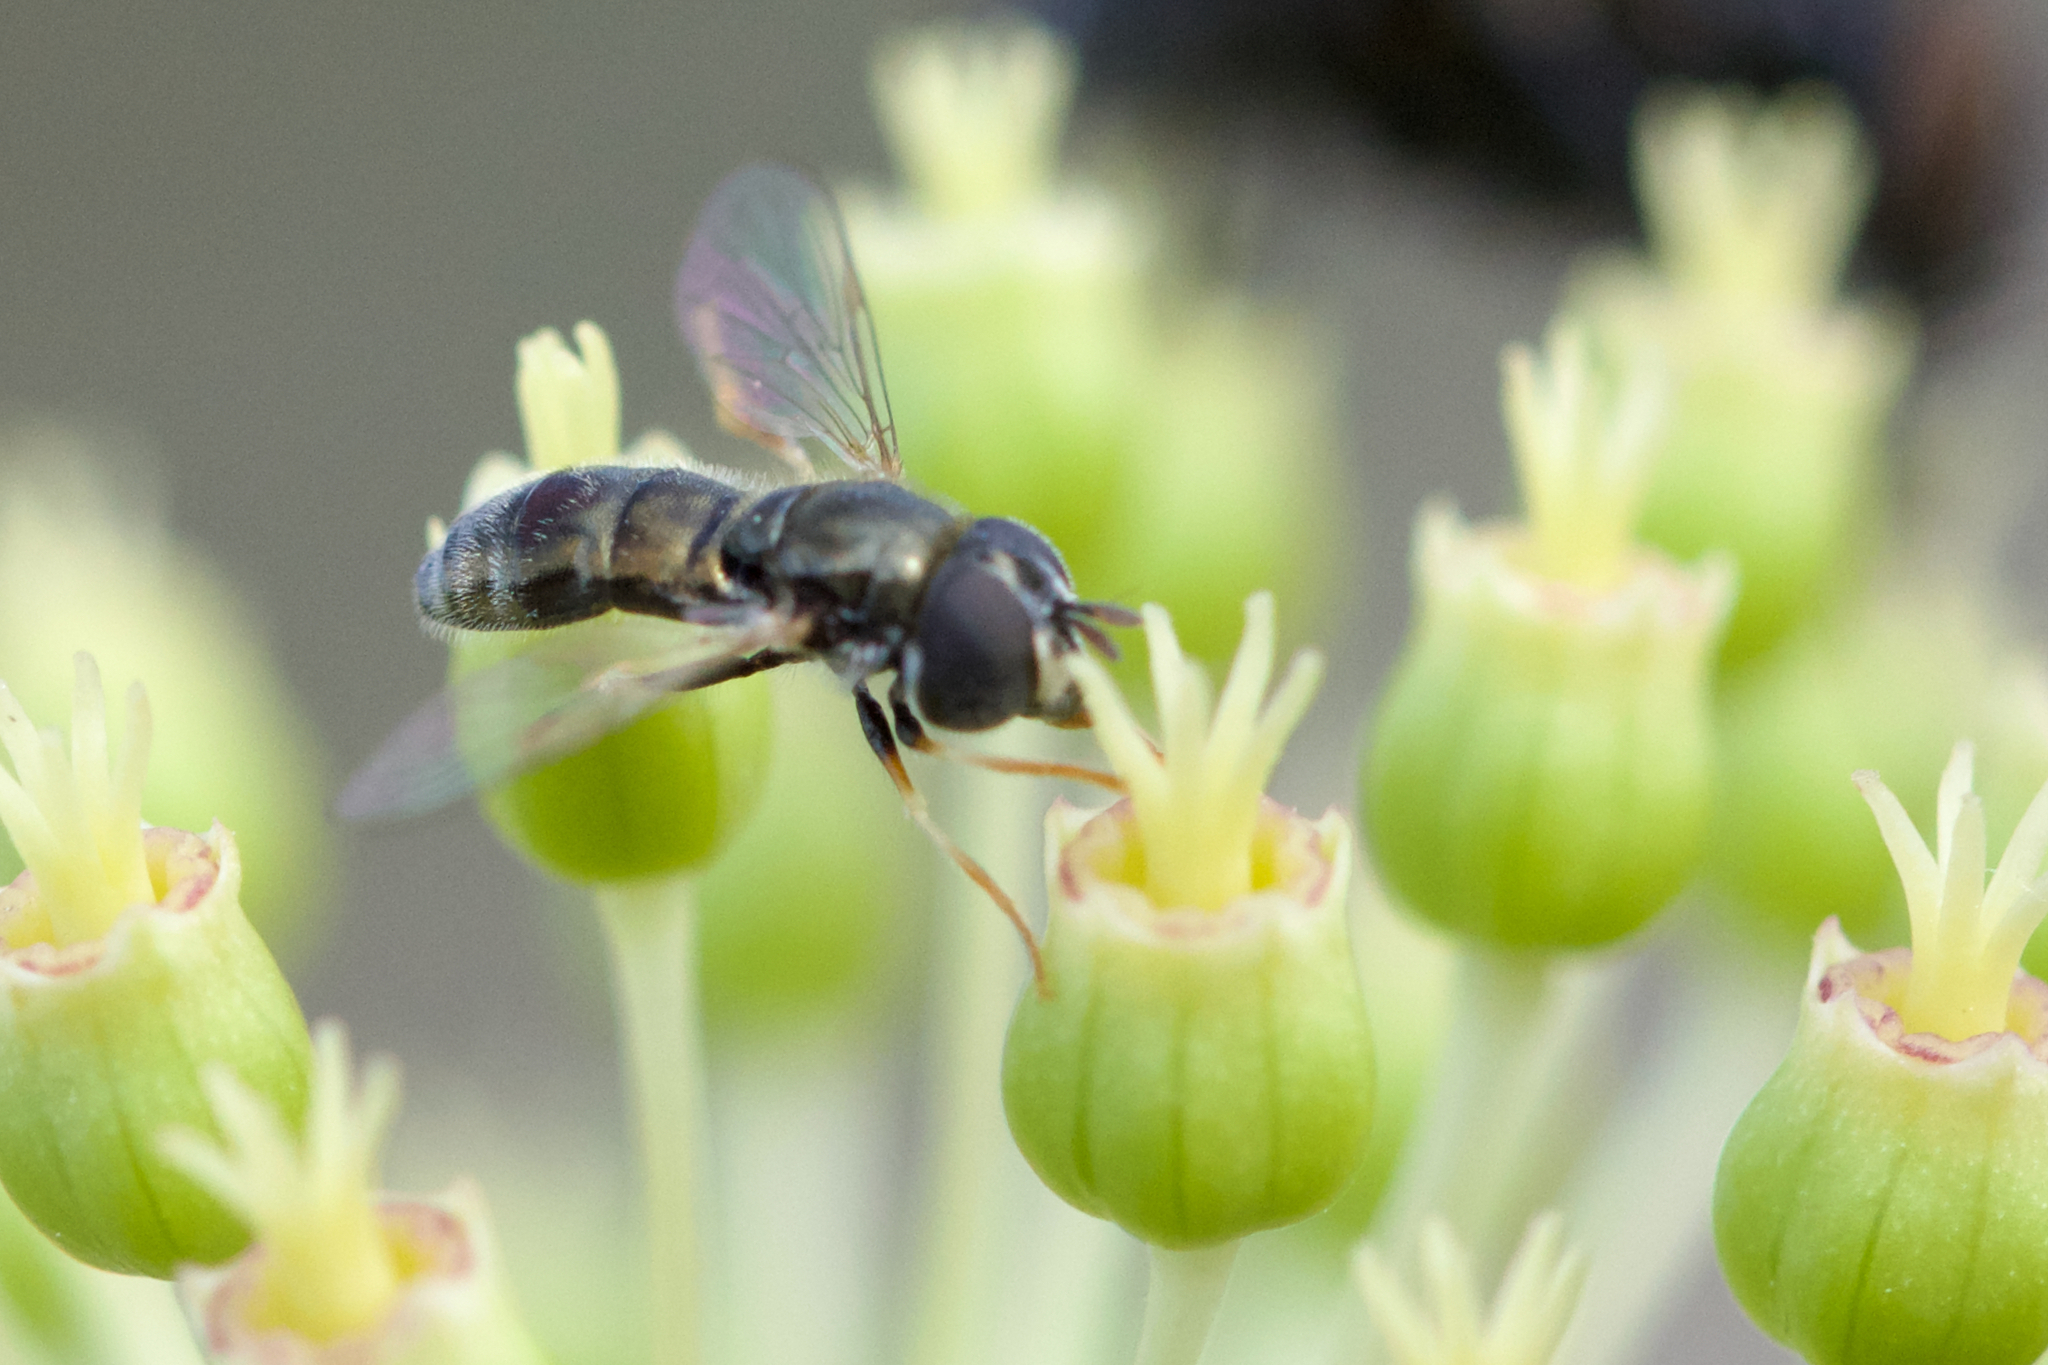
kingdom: Animalia
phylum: Arthropoda
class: Insecta
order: Diptera
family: Syrphidae
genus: Paragus
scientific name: Paragus haemorrhous
